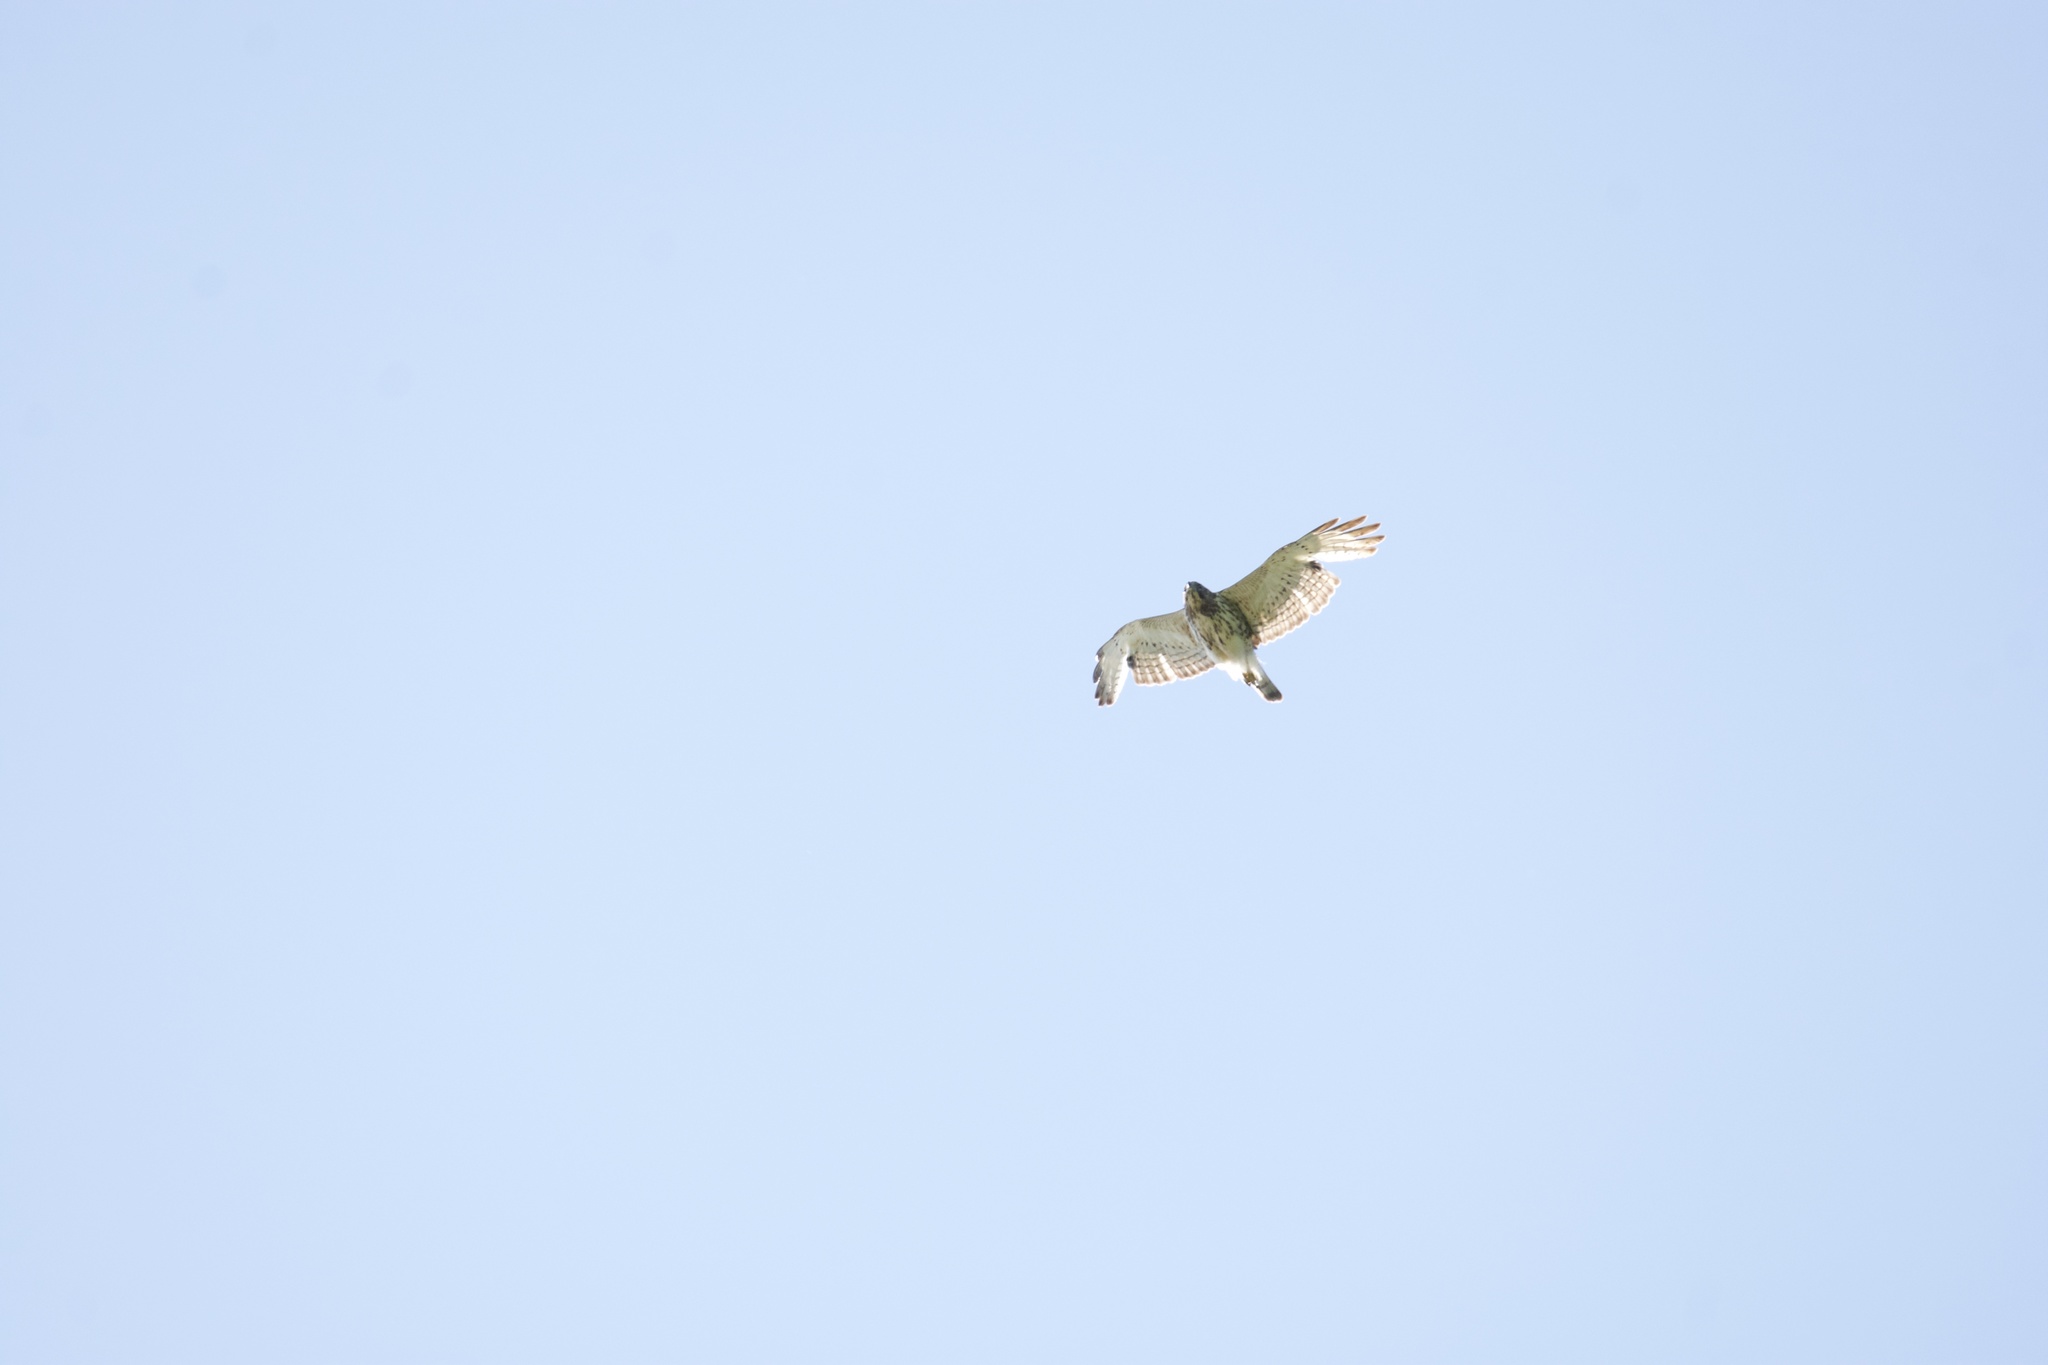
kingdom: Animalia
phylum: Chordata
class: Aves
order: Accipitriformes
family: Accipitridae
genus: Buteo
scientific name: Buteo platypterus
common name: Broad-winged hawk
